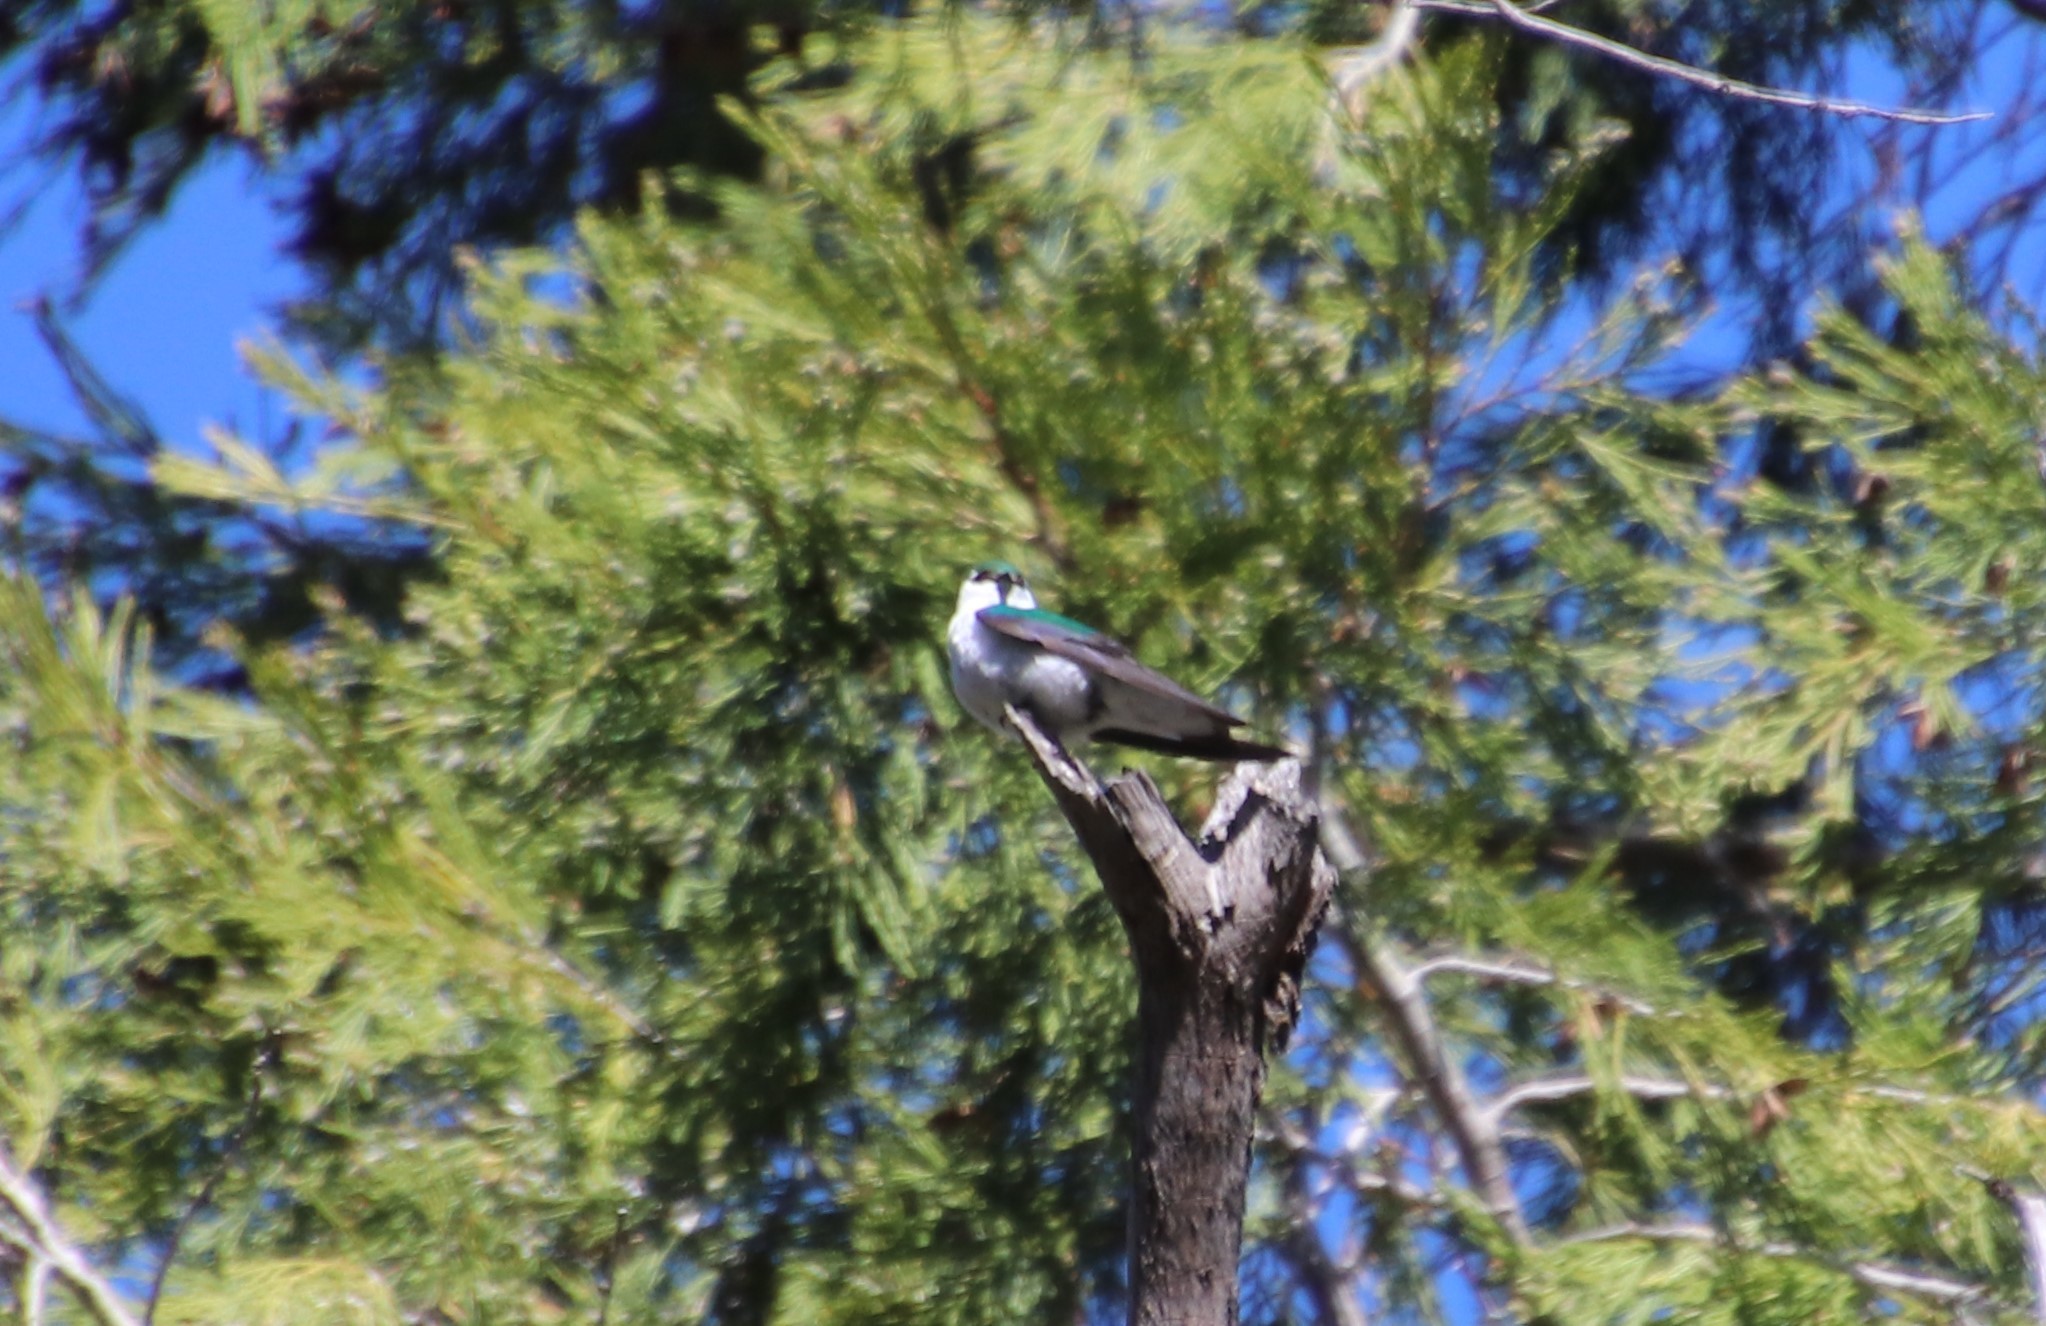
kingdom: Animalia
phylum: Chordata
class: Aves
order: Passeriformes
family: Hirundinidae
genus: Tachycineta
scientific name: Tachycineta thalassina
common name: Violet-green swallow
